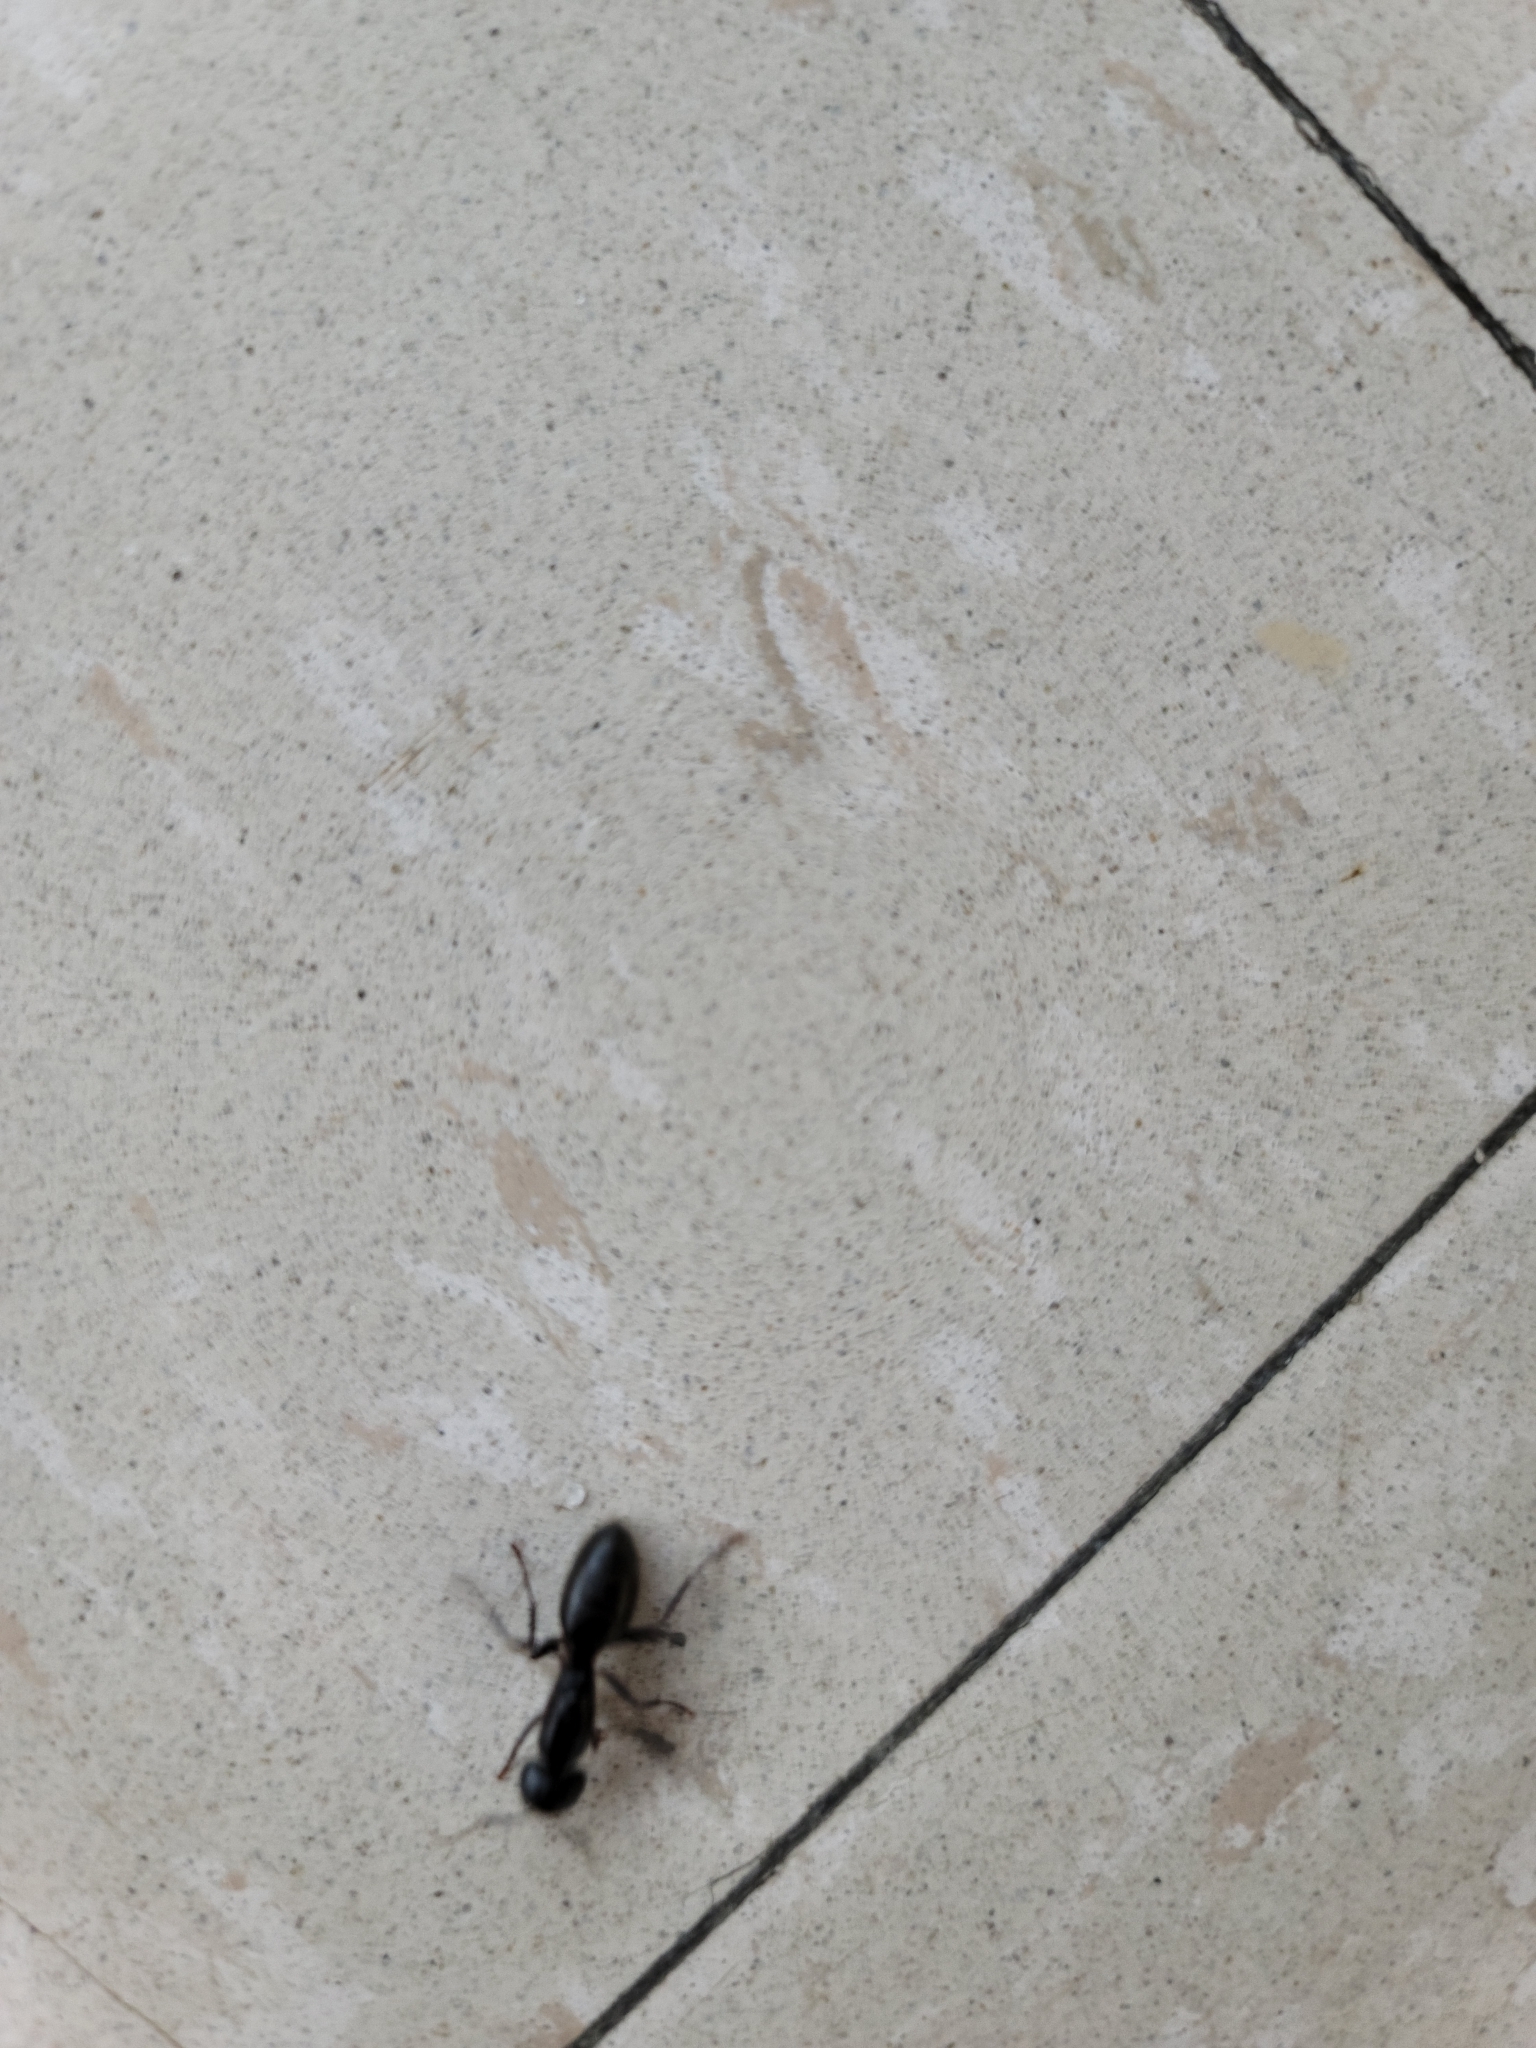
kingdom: Animalia
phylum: Arthropoda
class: Insecta
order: Hymenoptera
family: Formicidae
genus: Camponotus
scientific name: Camponotus pennsylvanicus
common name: Black carpenter ant
